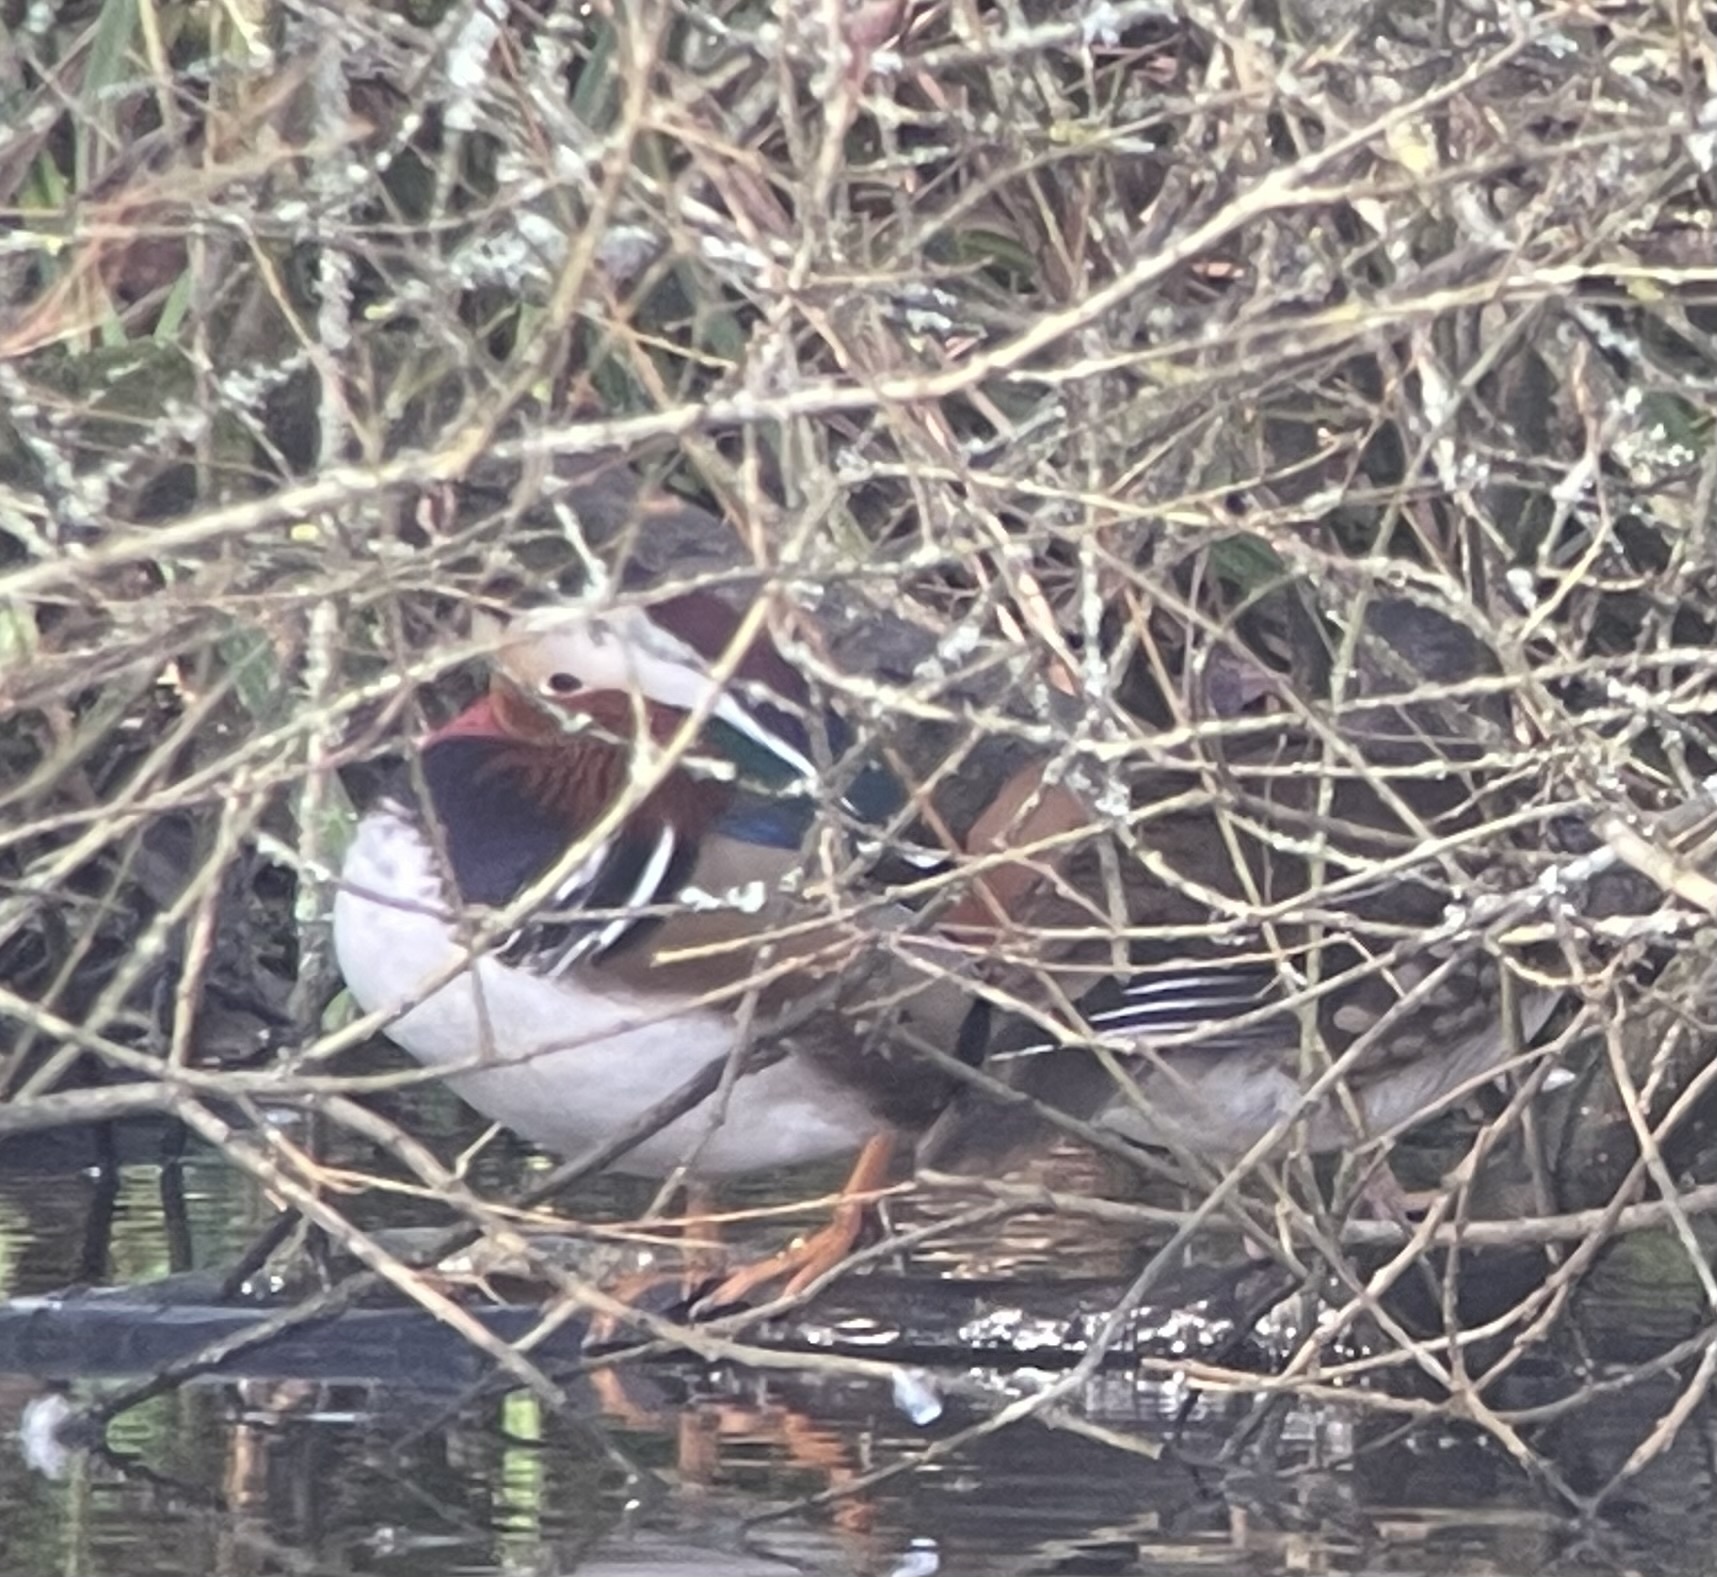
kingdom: Animalia
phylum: Chordata
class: Aves
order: Anseriformes
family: Anatidae
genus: Aix
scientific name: Aix galericulata
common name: Mandarin duck
